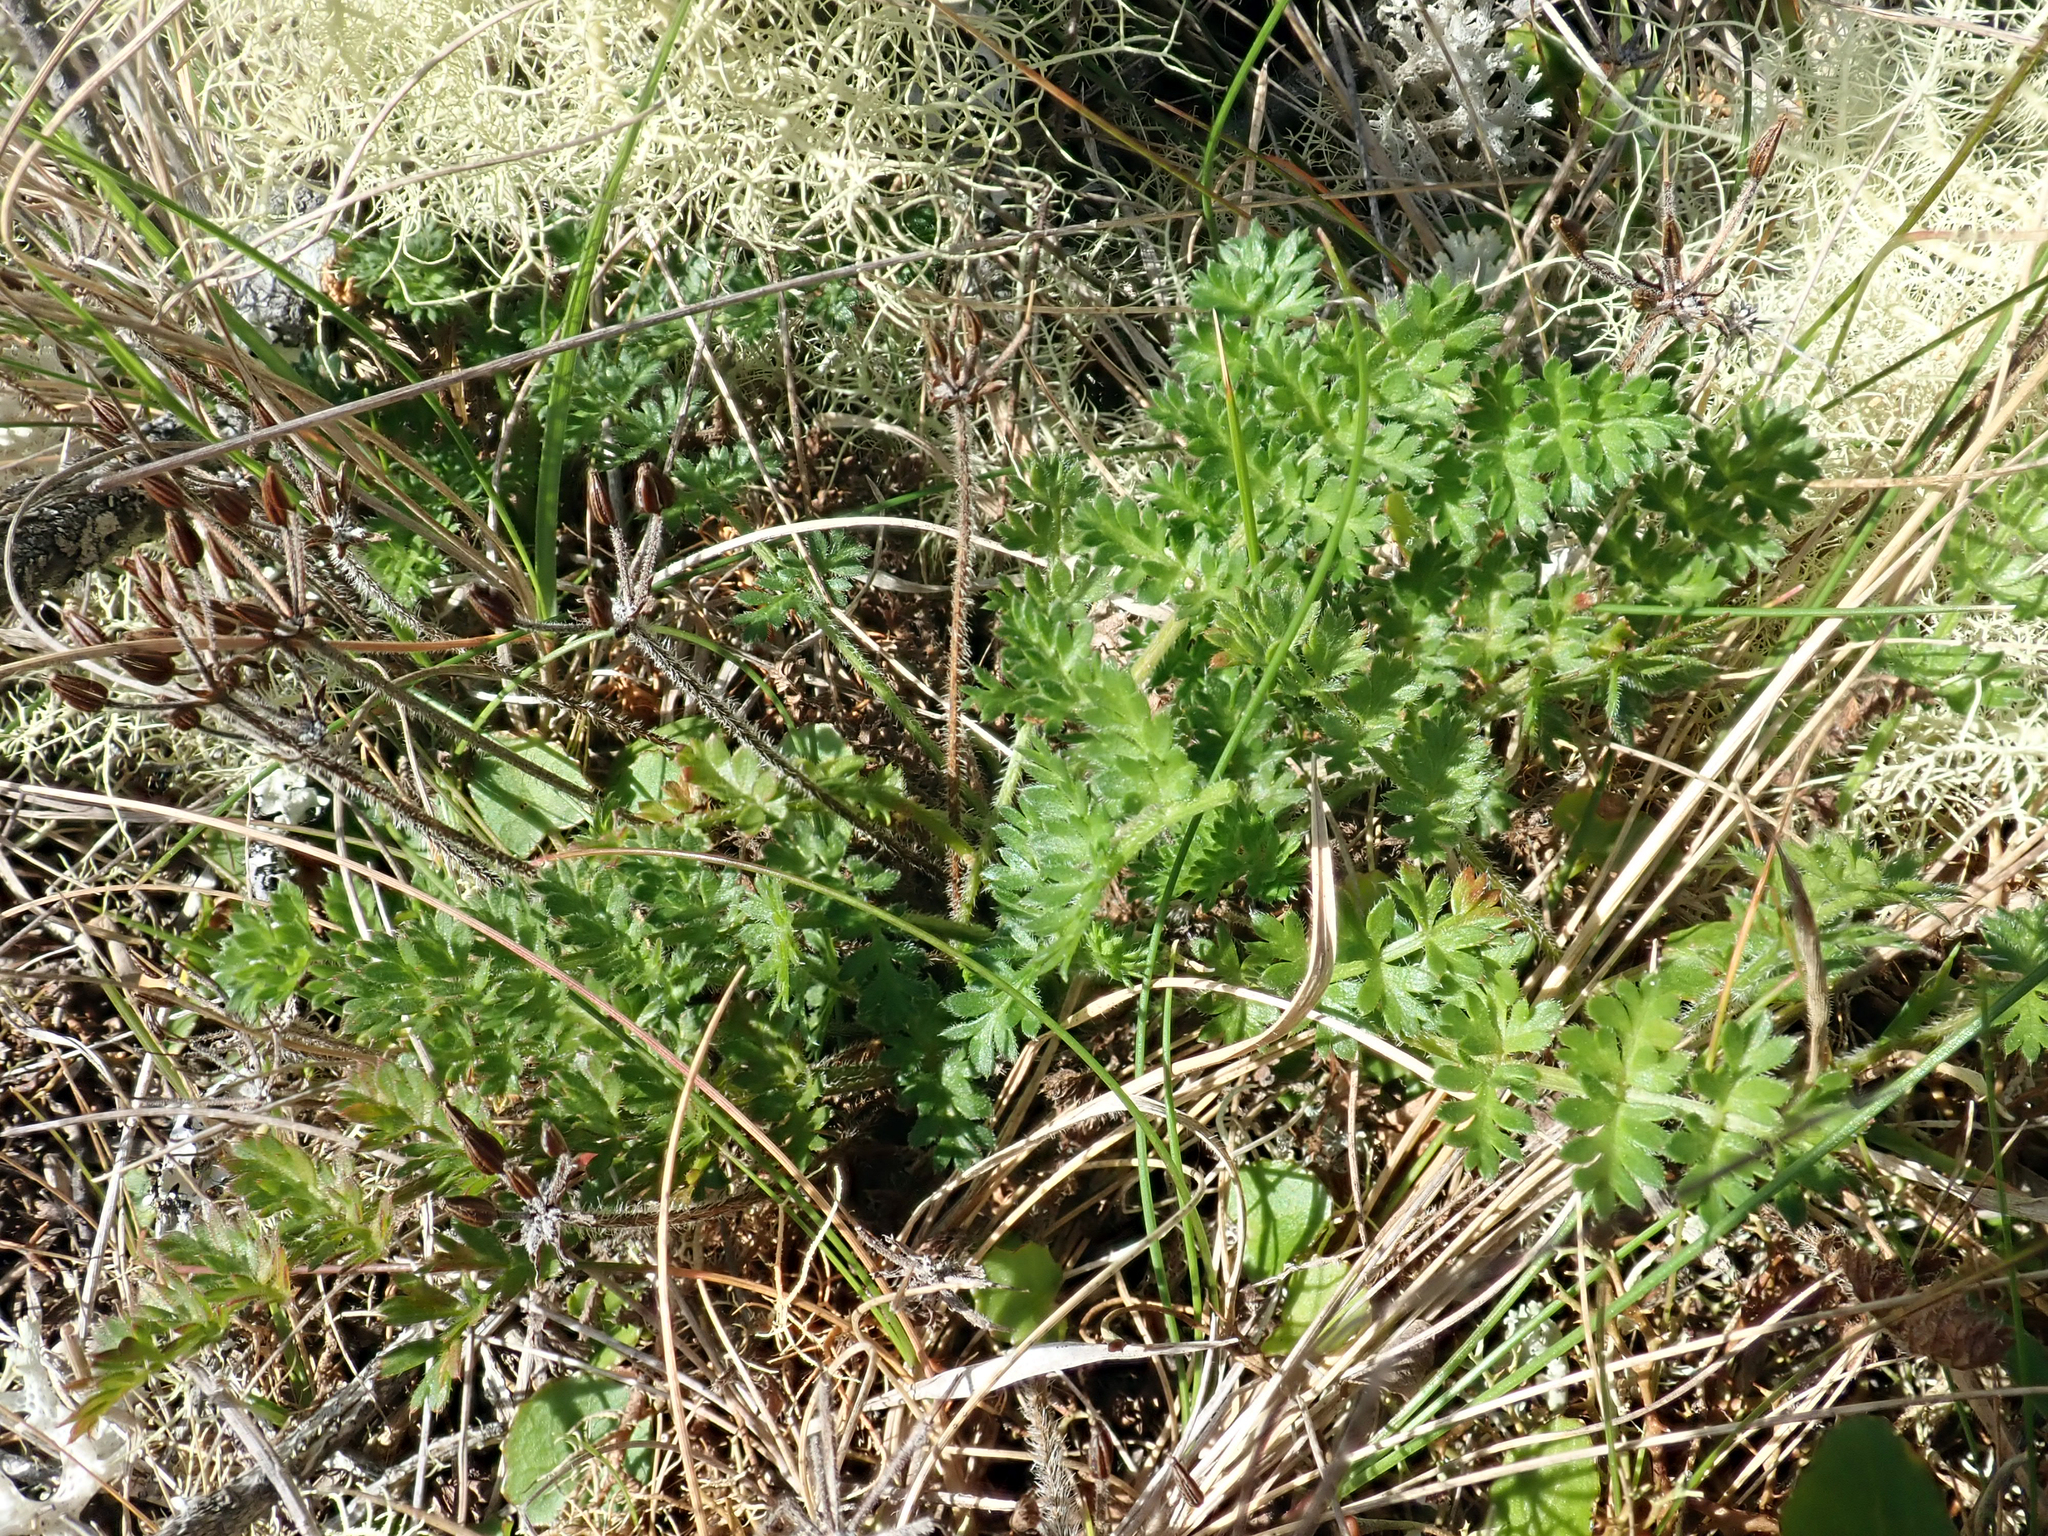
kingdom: Plantae
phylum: Tracheophyta
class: Magnoliopsida
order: Apiales
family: Apiaceae
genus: Chaerophyllum
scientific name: Chaerophyllum colensoi
